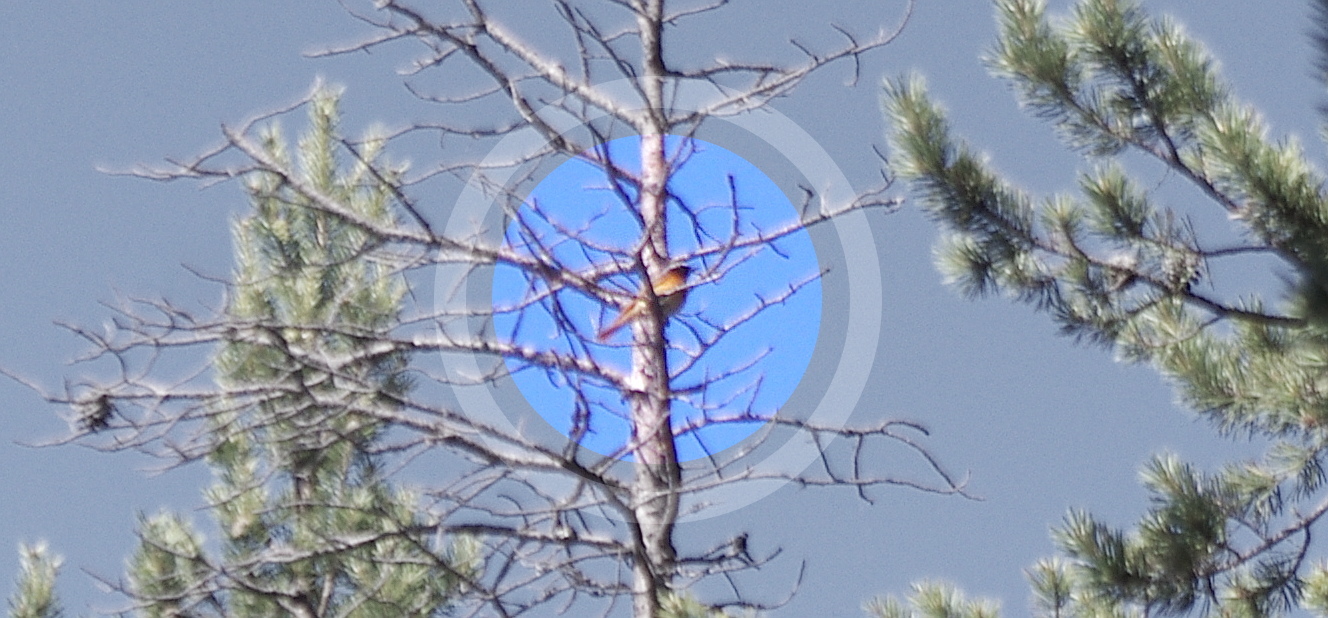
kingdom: Animalia
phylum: Chordata
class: Aves
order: Passeriformes
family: Muscicapidae
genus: Phoenicurus
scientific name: Phoenicurus phoenicurus
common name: Common redstart
